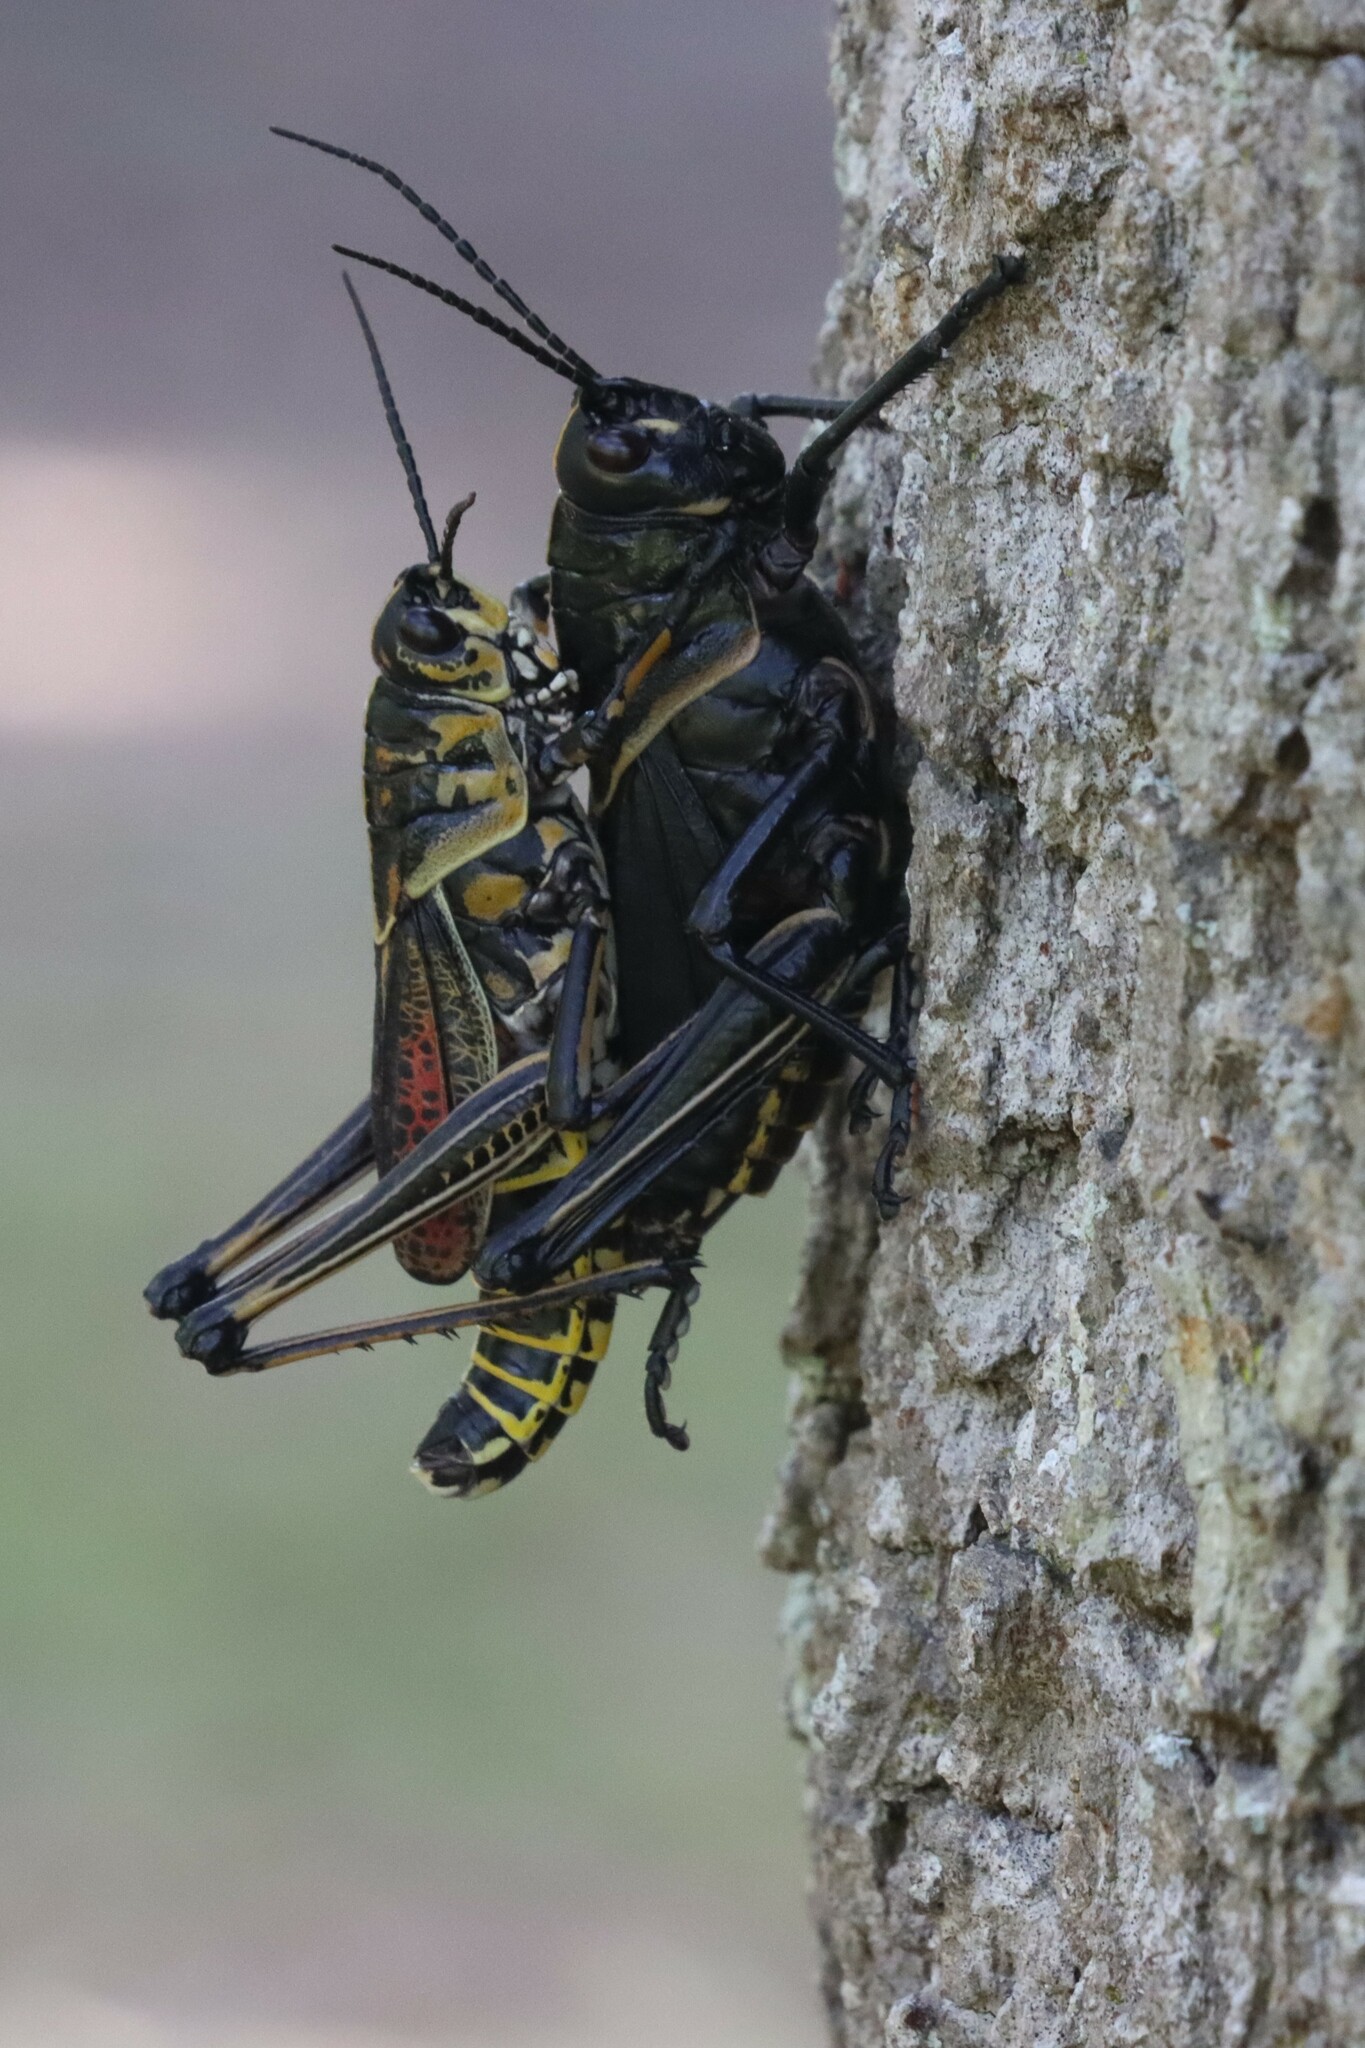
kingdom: Animalia
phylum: Arthropoda
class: Insecta
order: Orthoptera
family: Romaleidae
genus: Romalea
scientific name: Romalea microptera
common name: Eastern lubber grasshopper
